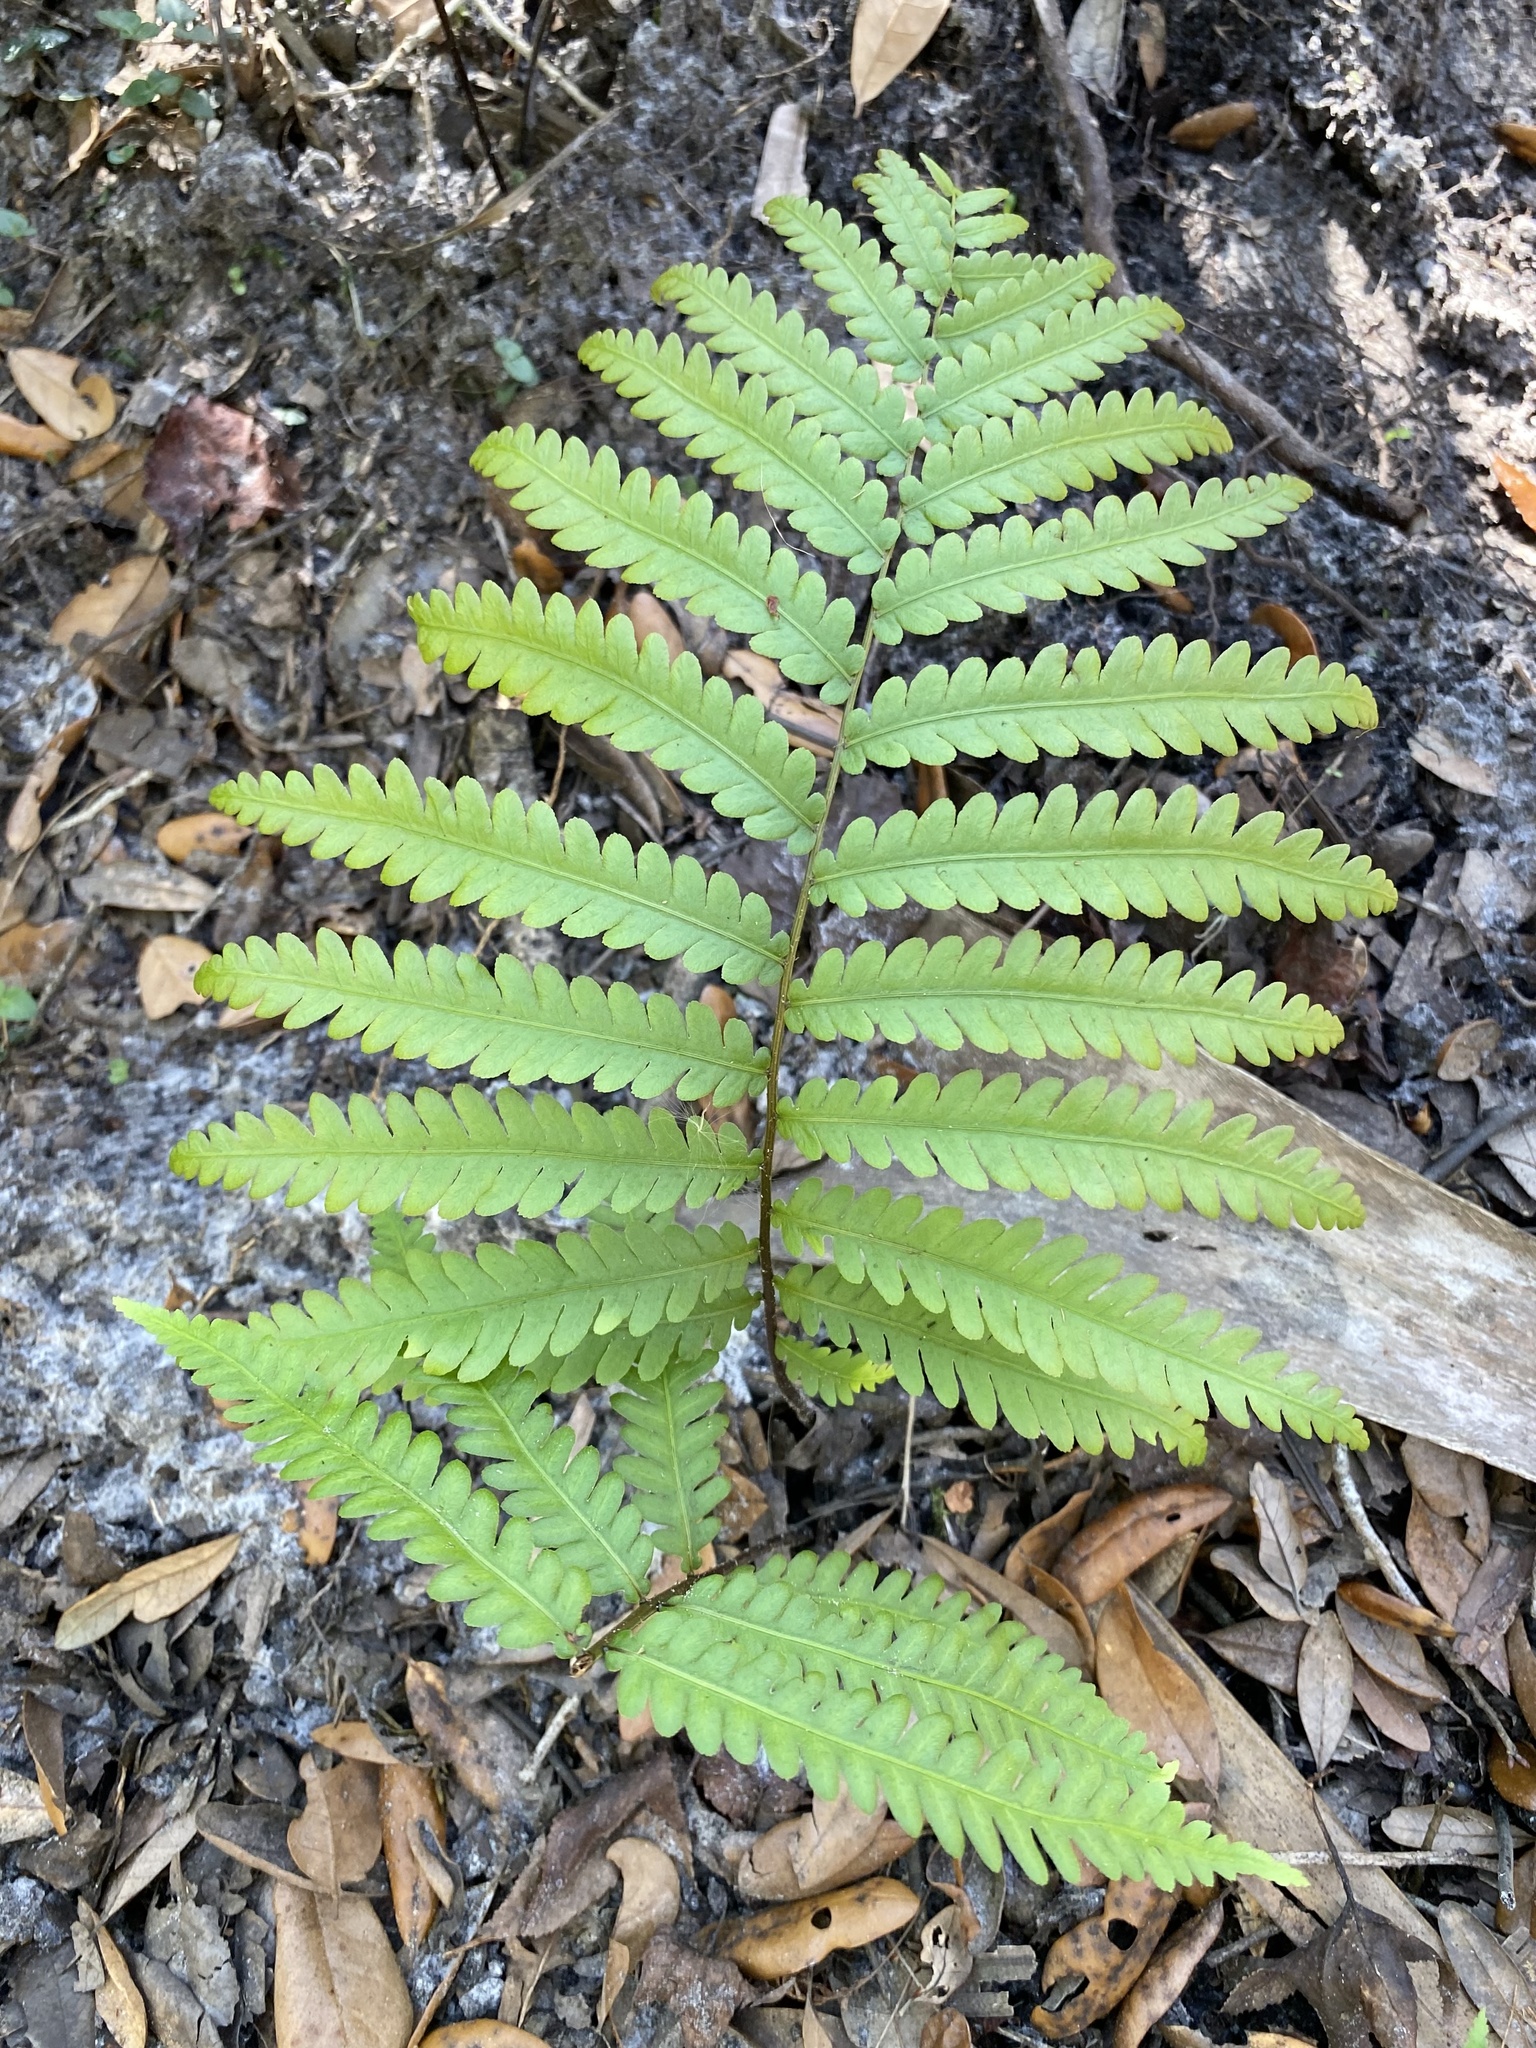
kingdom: Plantae
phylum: Tracheophyta
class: Polypodiopsida
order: Polypodiales
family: Blechnaceae
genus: Anchistea
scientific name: Anchistea virginica
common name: Virginia chain fern
